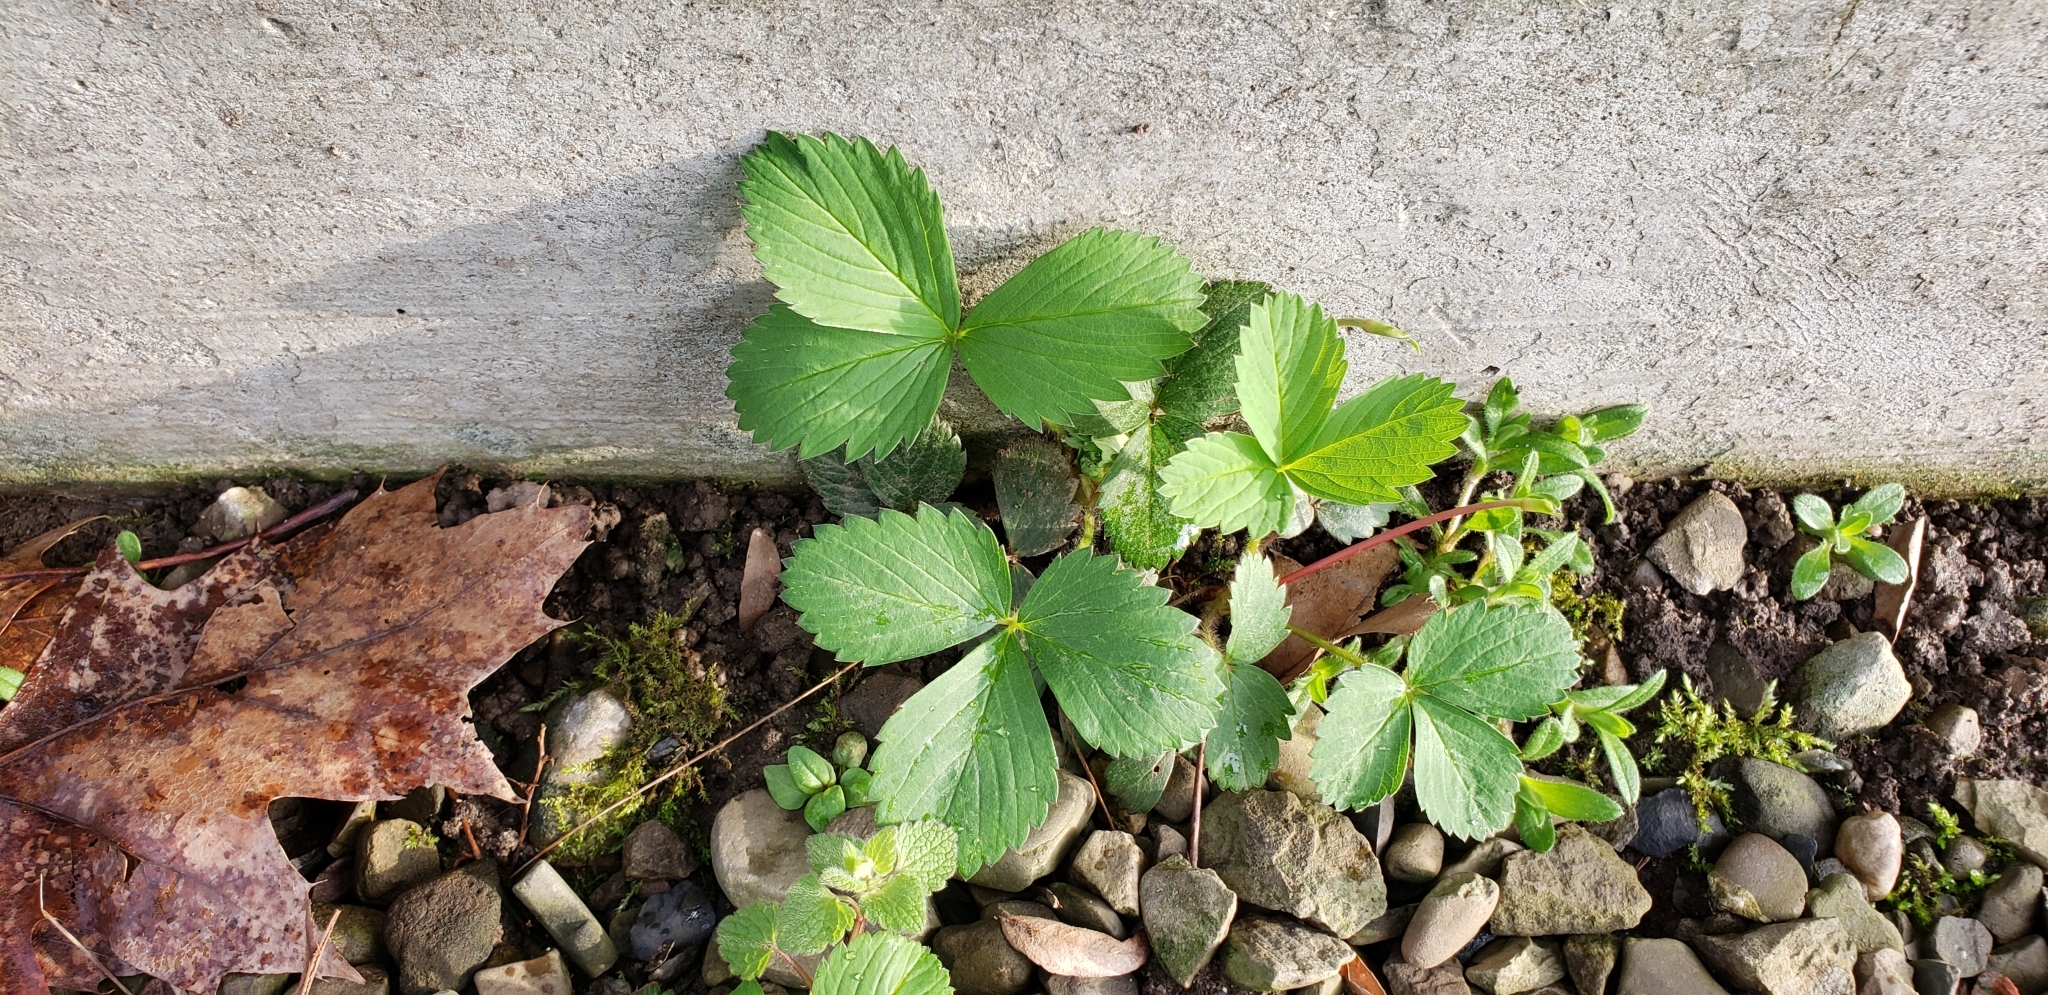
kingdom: Plantae
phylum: Tracheophyta
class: Magnoliopsida
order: Rosales
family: Rosaceae
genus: Fragaria
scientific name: Fragaria vesca
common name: Wild strawberry
